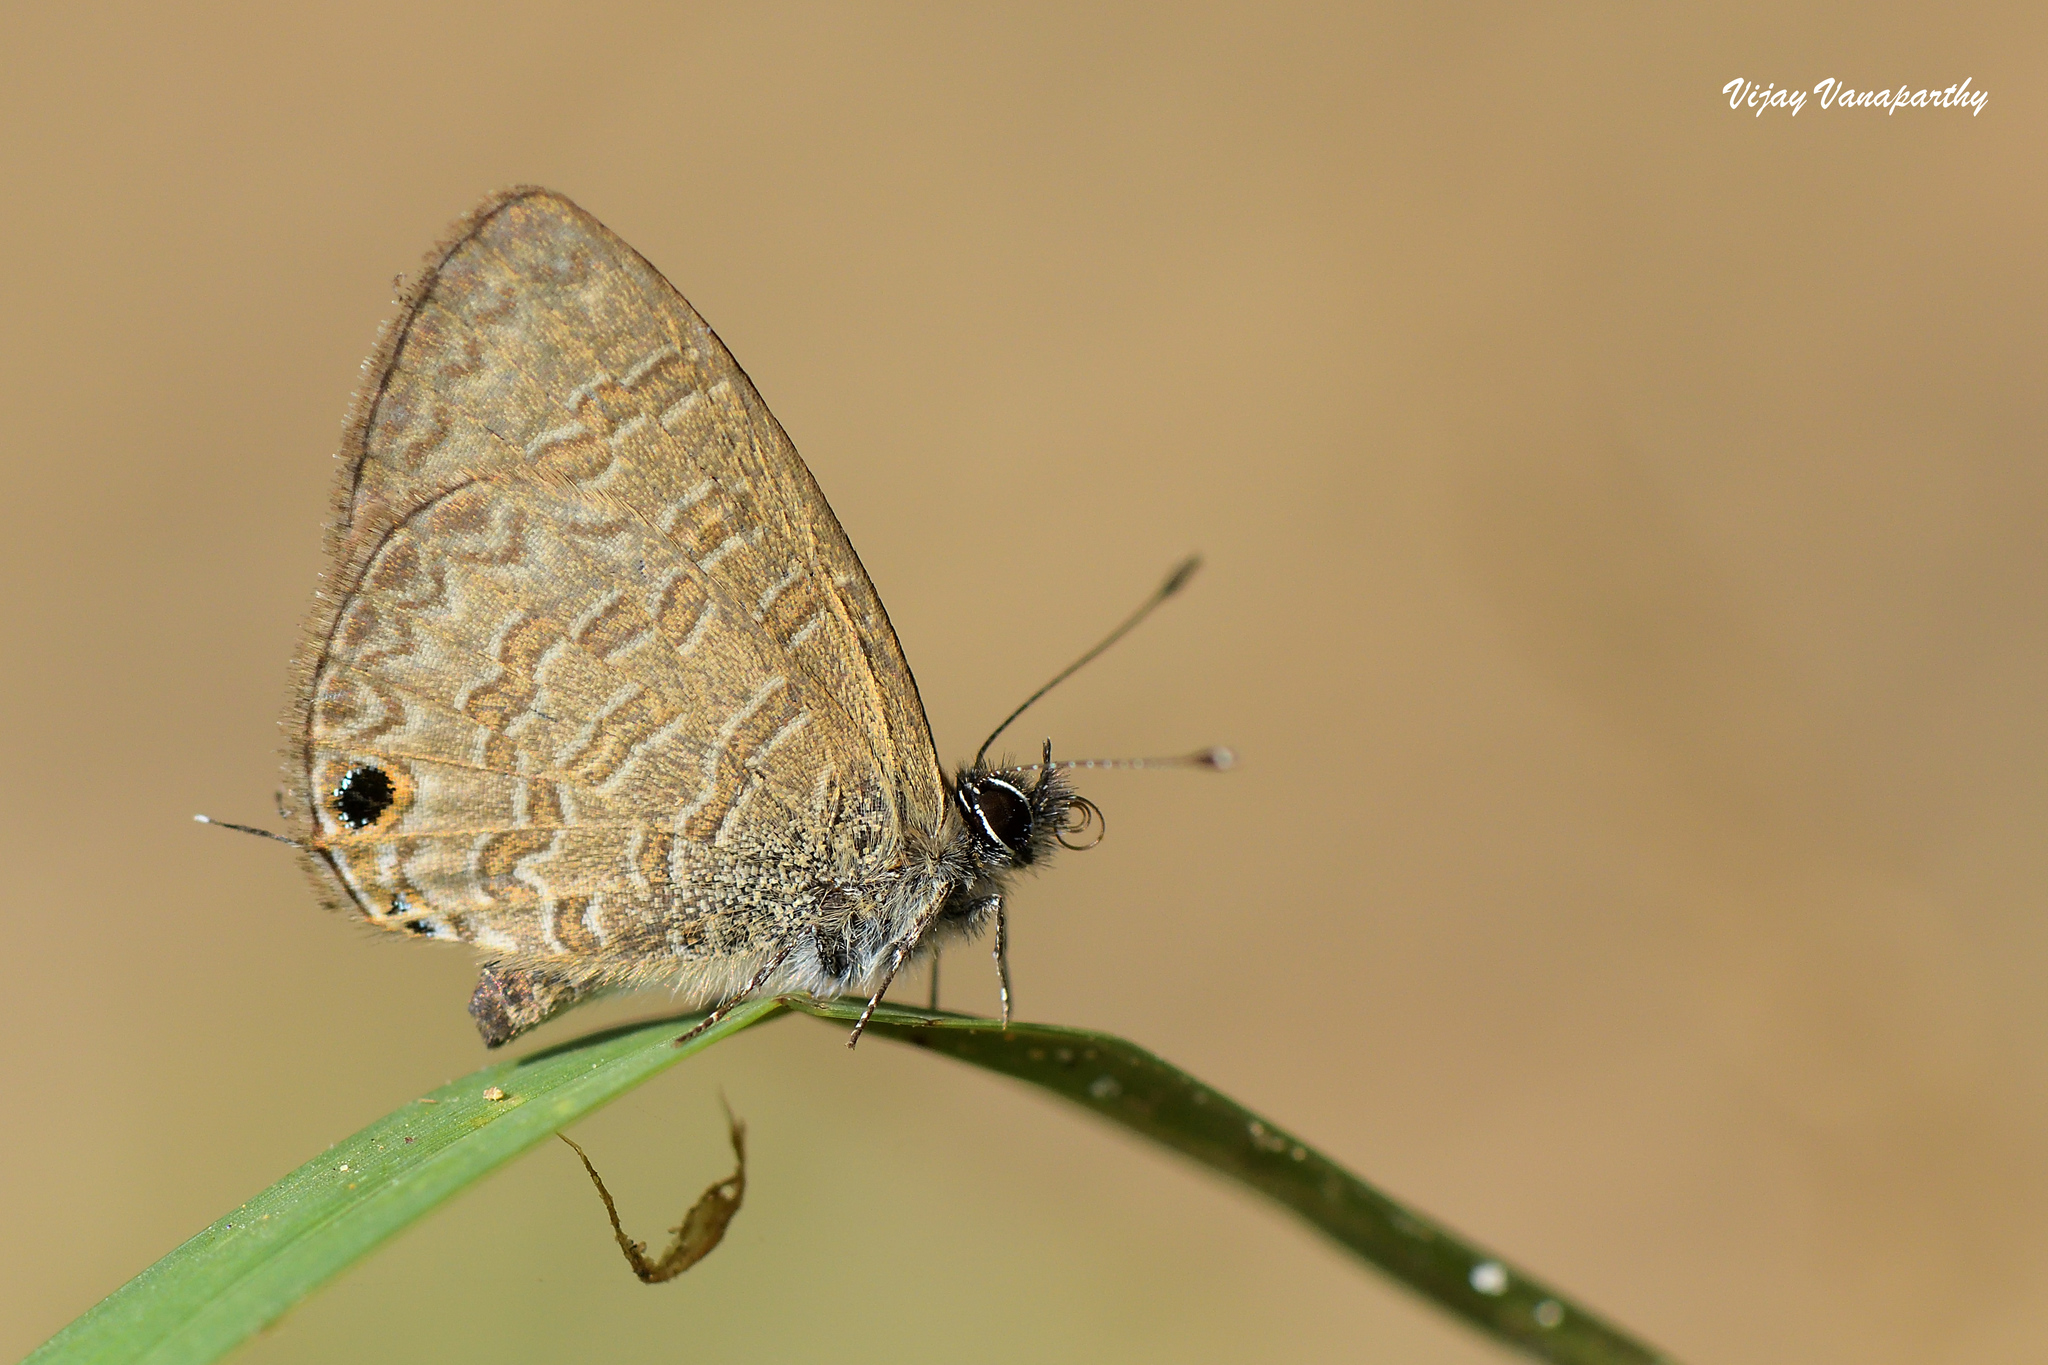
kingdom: Animalia
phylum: Arthropoda
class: Insecta
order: Lepidoptera
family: Lycaenidae
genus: Prosotas
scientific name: Prosotas nora
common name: Common line blue
